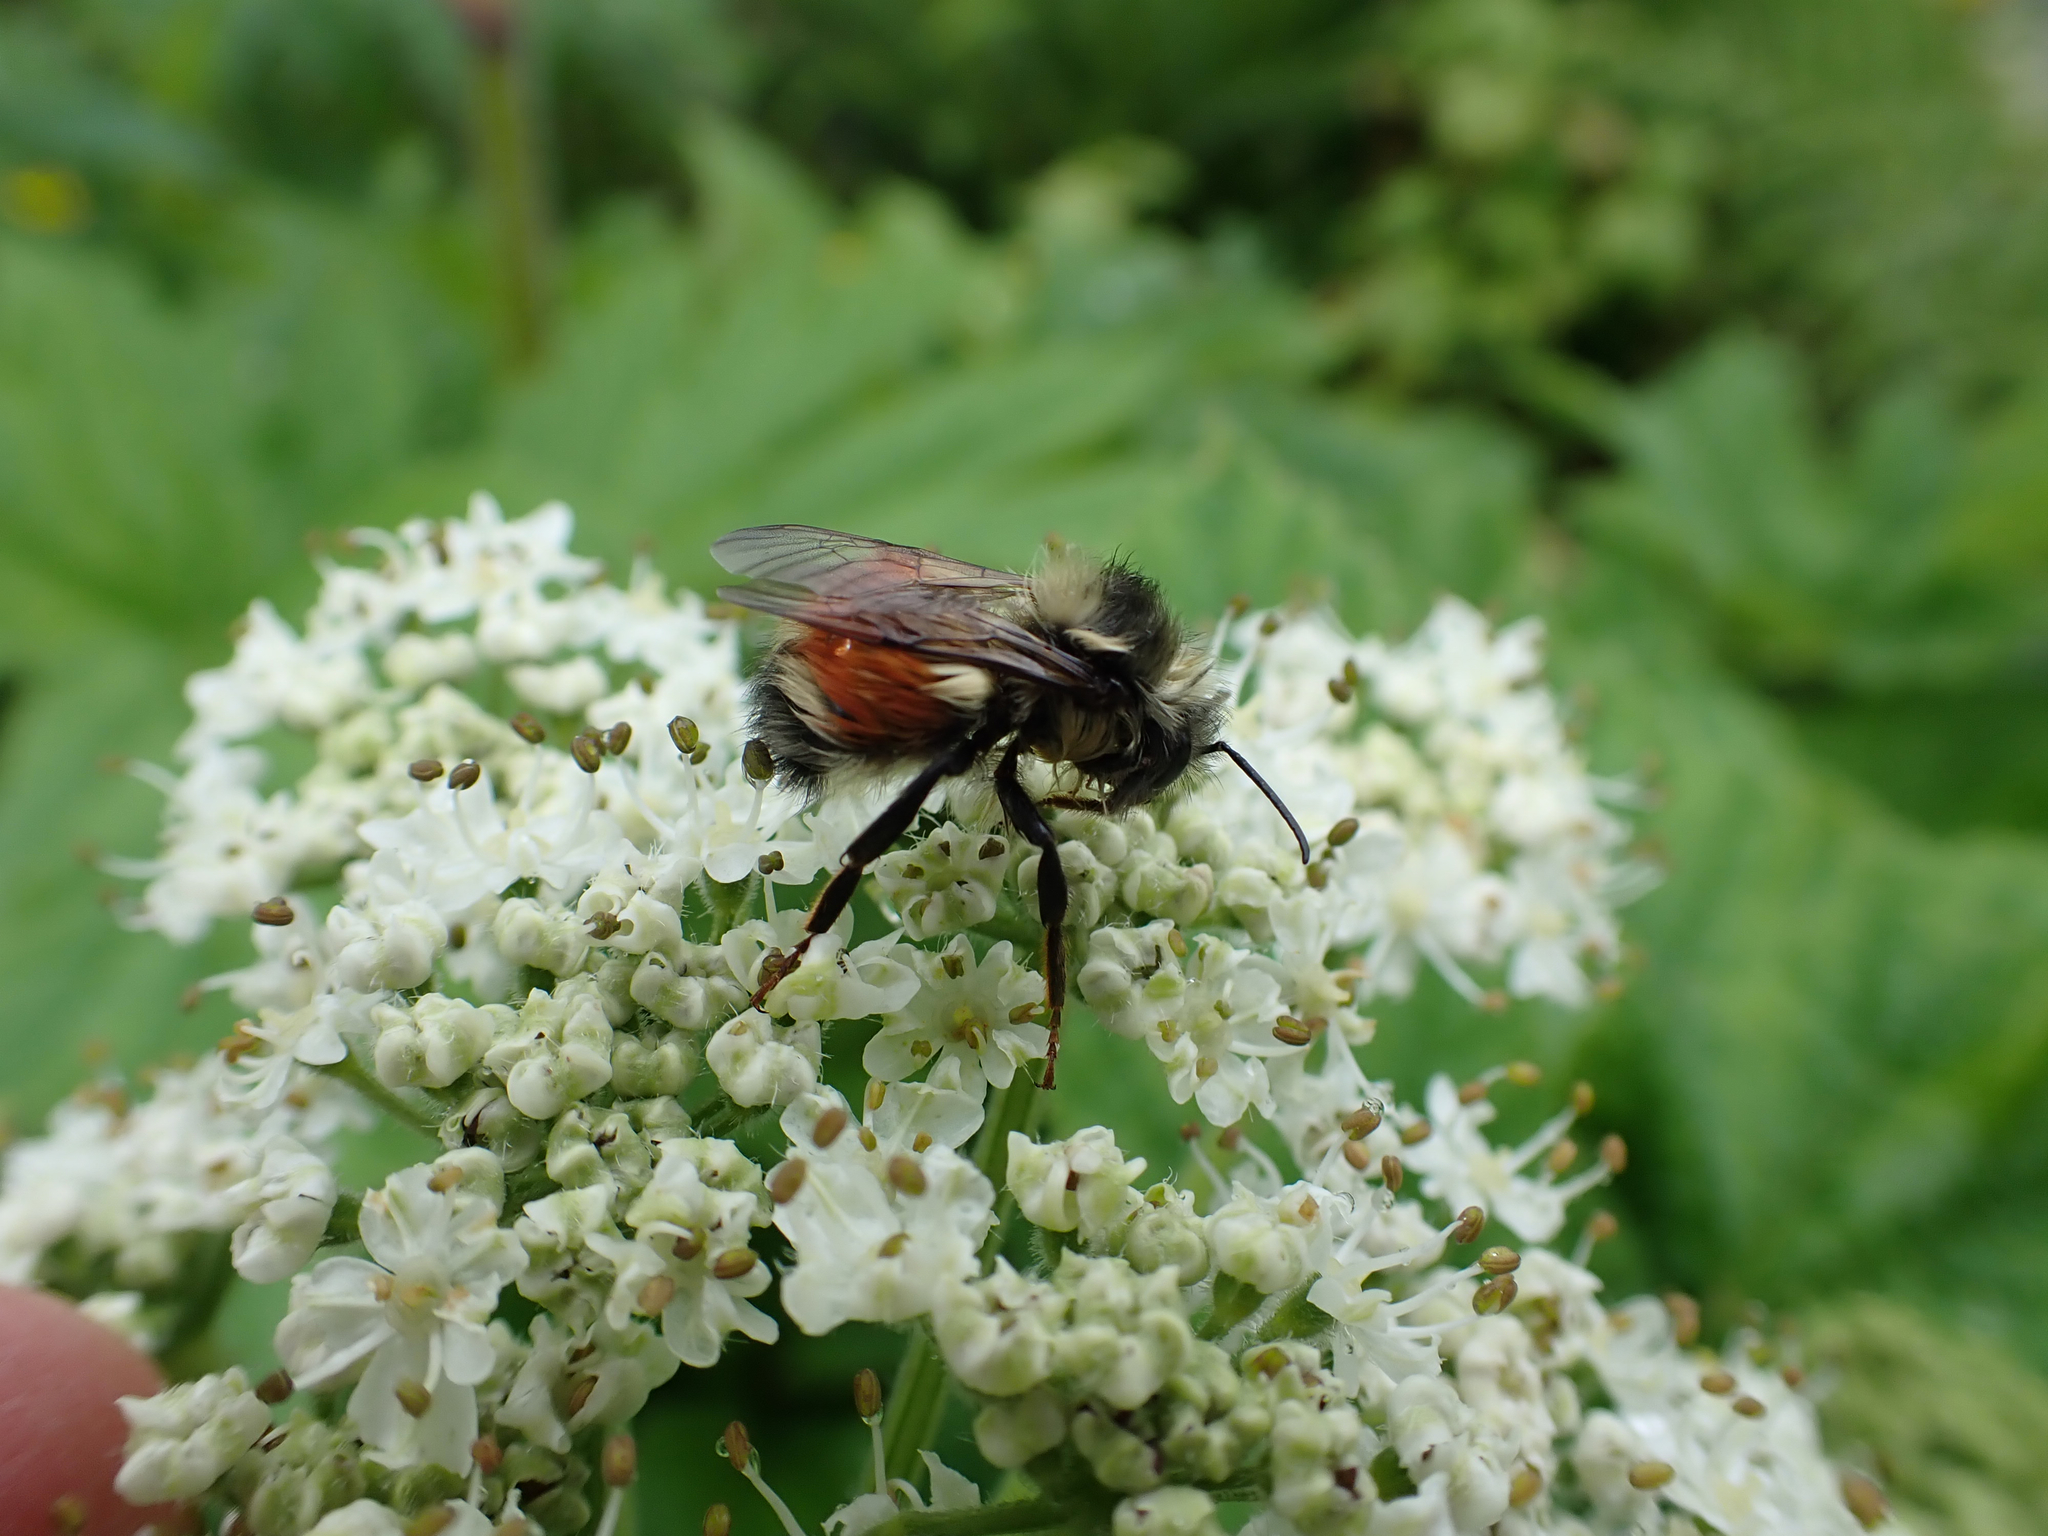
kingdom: Animalia
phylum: Arthropoda
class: Insecta
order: Hymenoptera
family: Apidae
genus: Bombus
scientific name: Bombus melanopygus
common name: Black tail bumble bee
